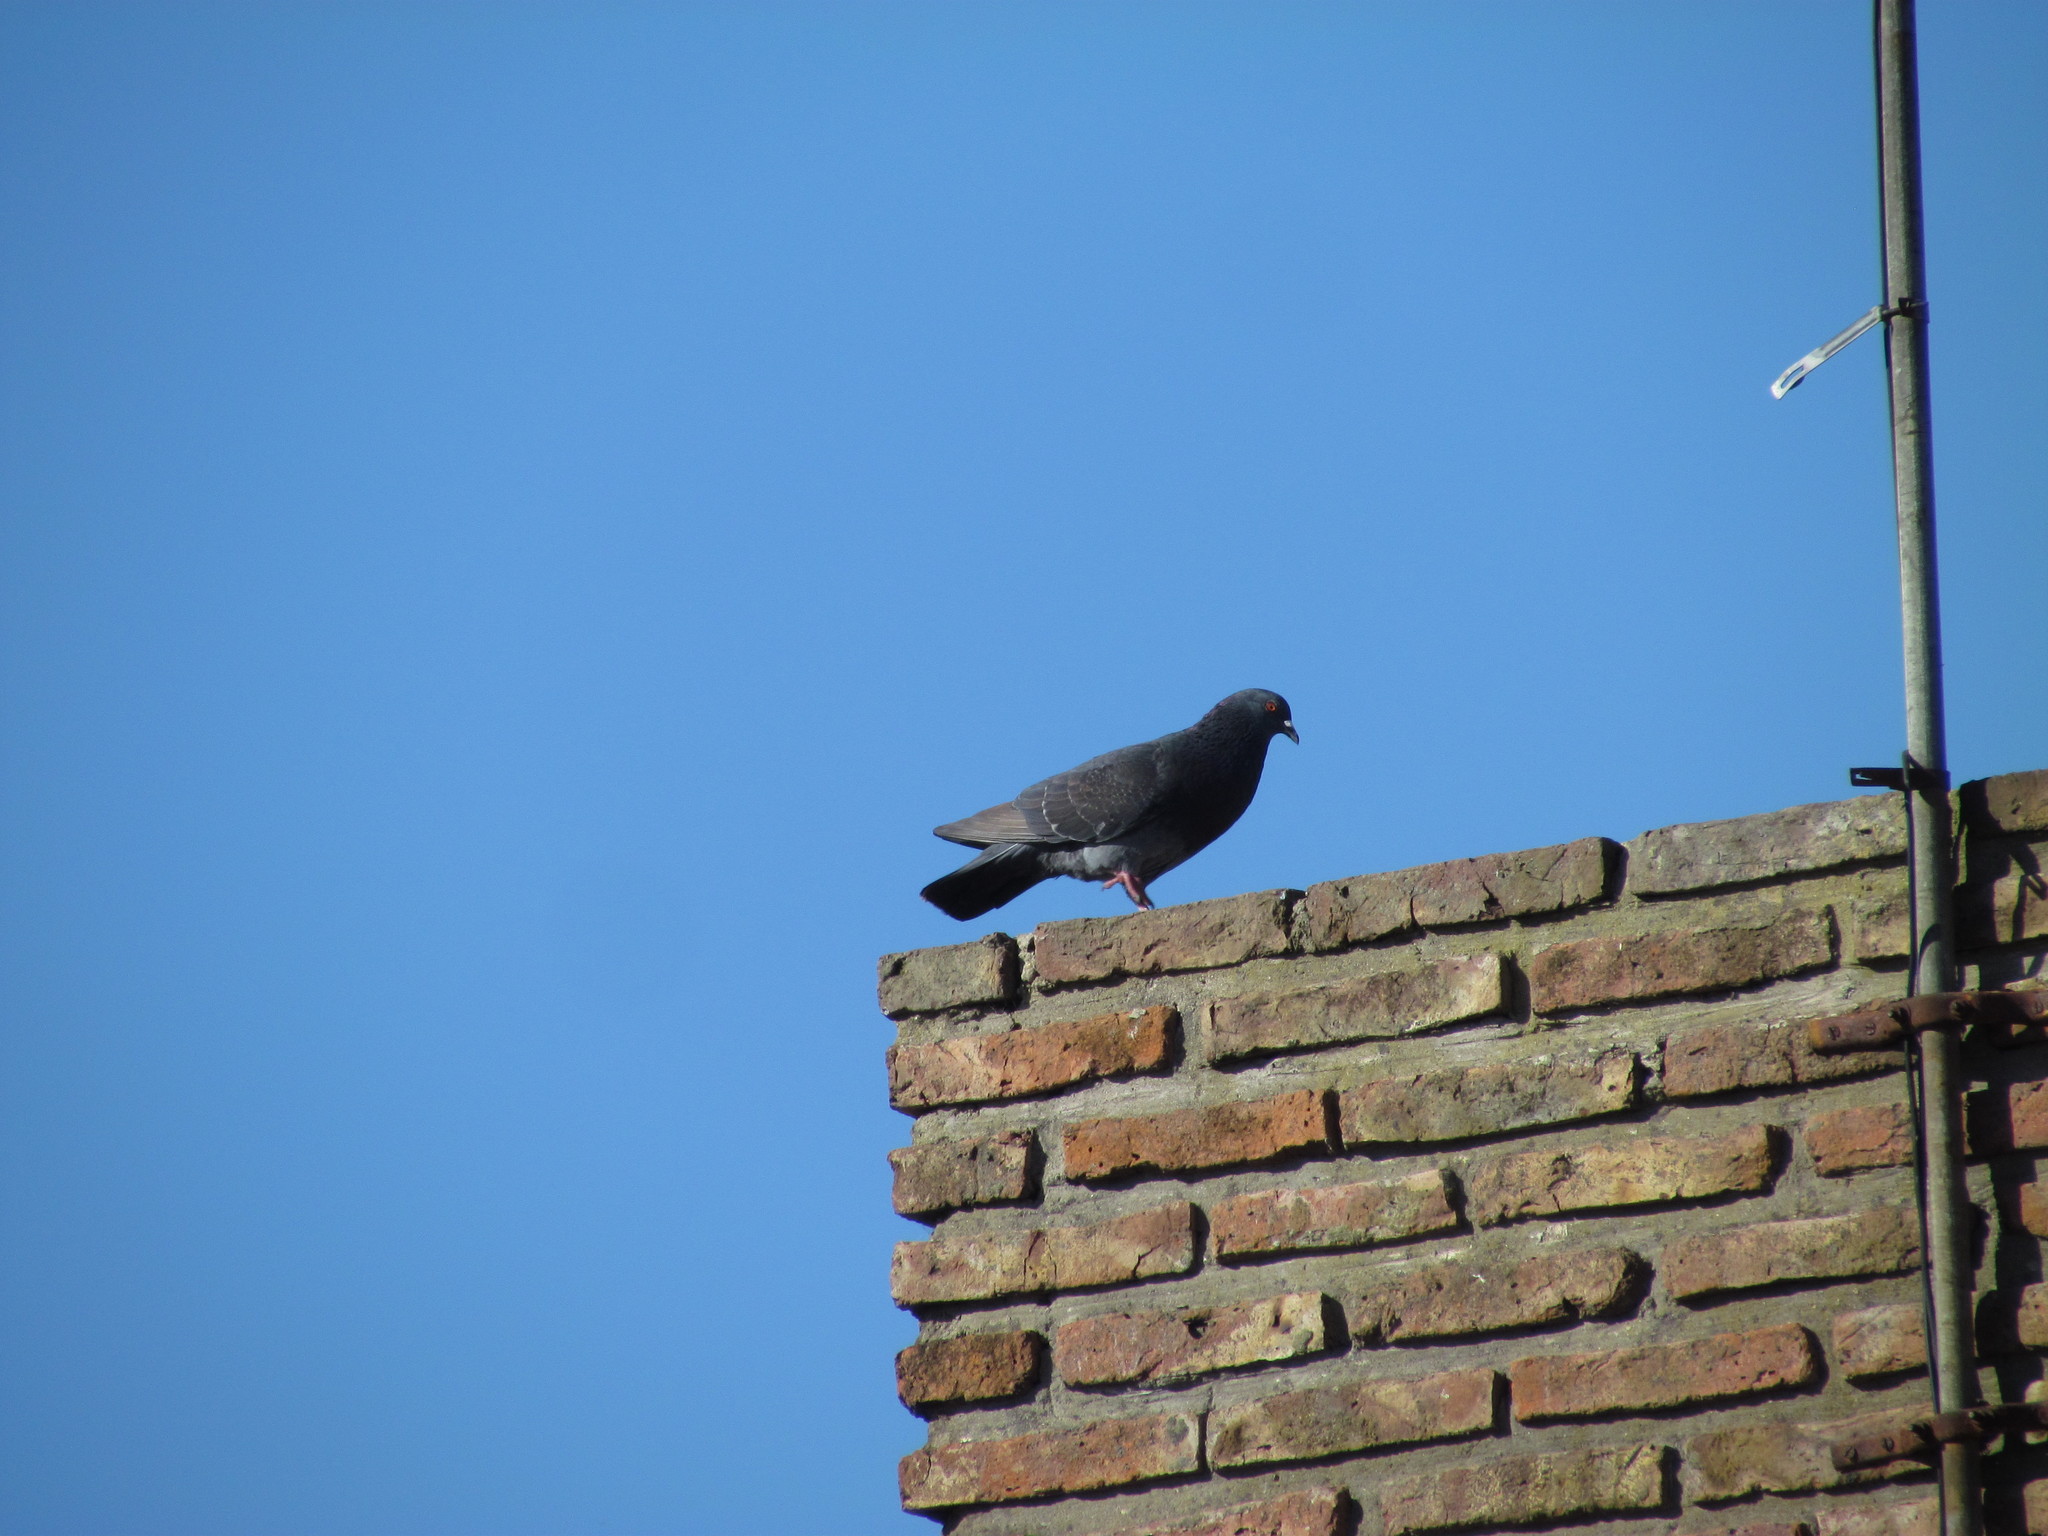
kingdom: Animalia
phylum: Chordata
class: Aves
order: Columbiformes
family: Columbidae
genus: Columba
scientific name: Columba livia
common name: Rock pigeon
